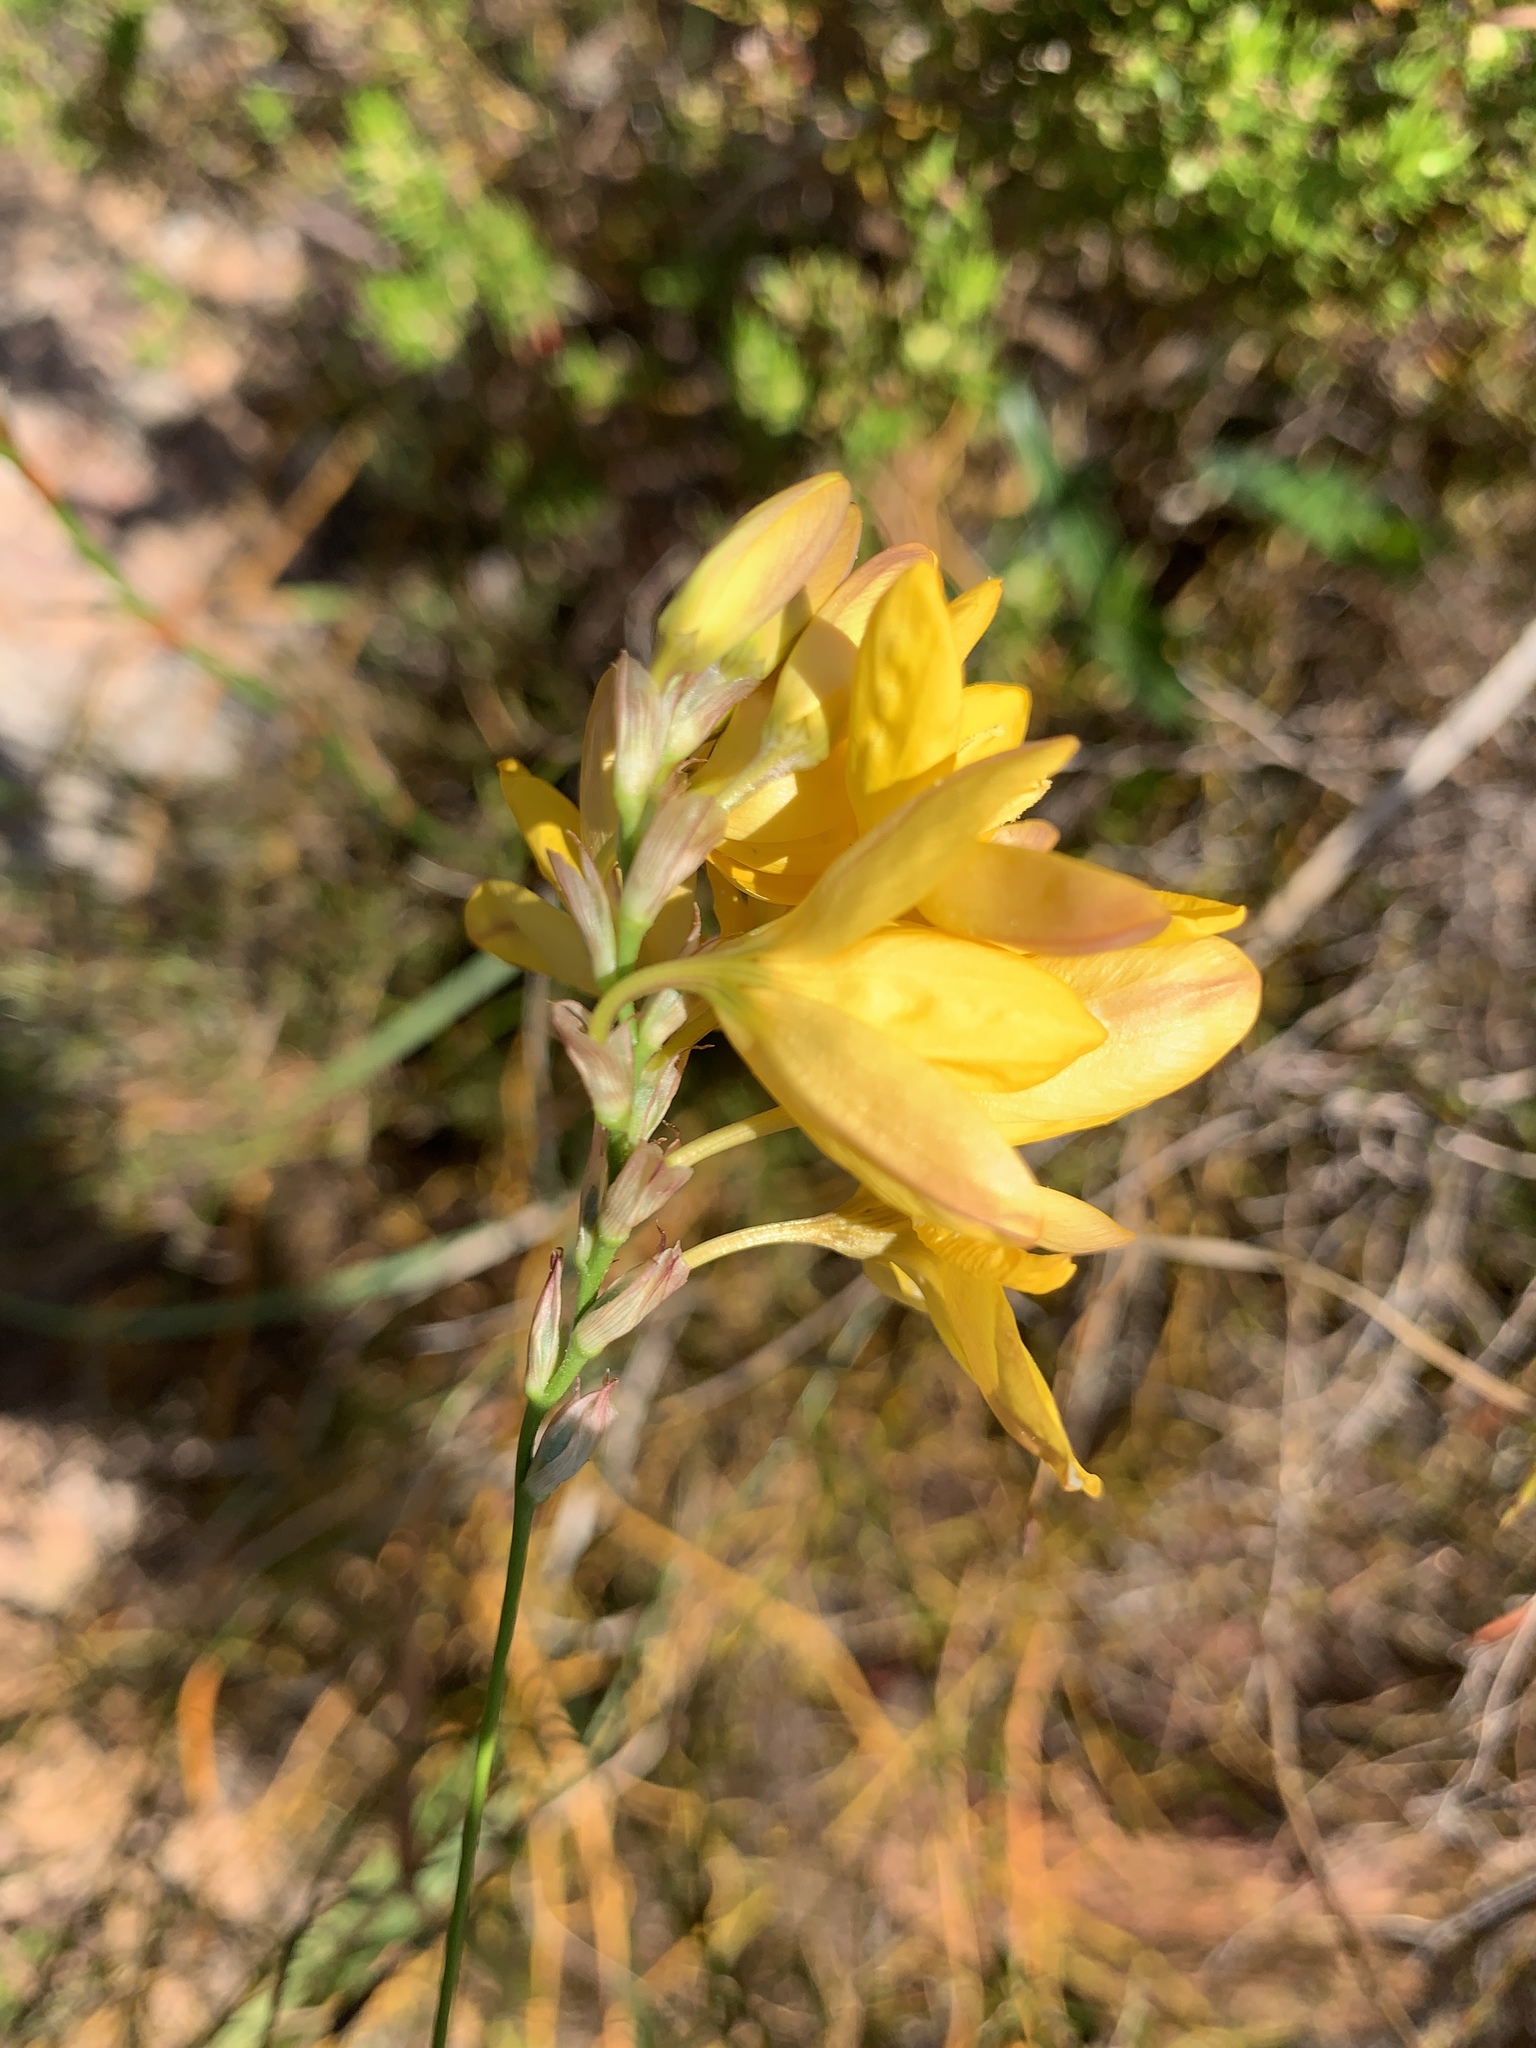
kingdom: Plantae
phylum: Tracheophyta
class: Liliopsida
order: Asparagales
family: Iridaceae
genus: Ixia
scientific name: Ixia dubia
